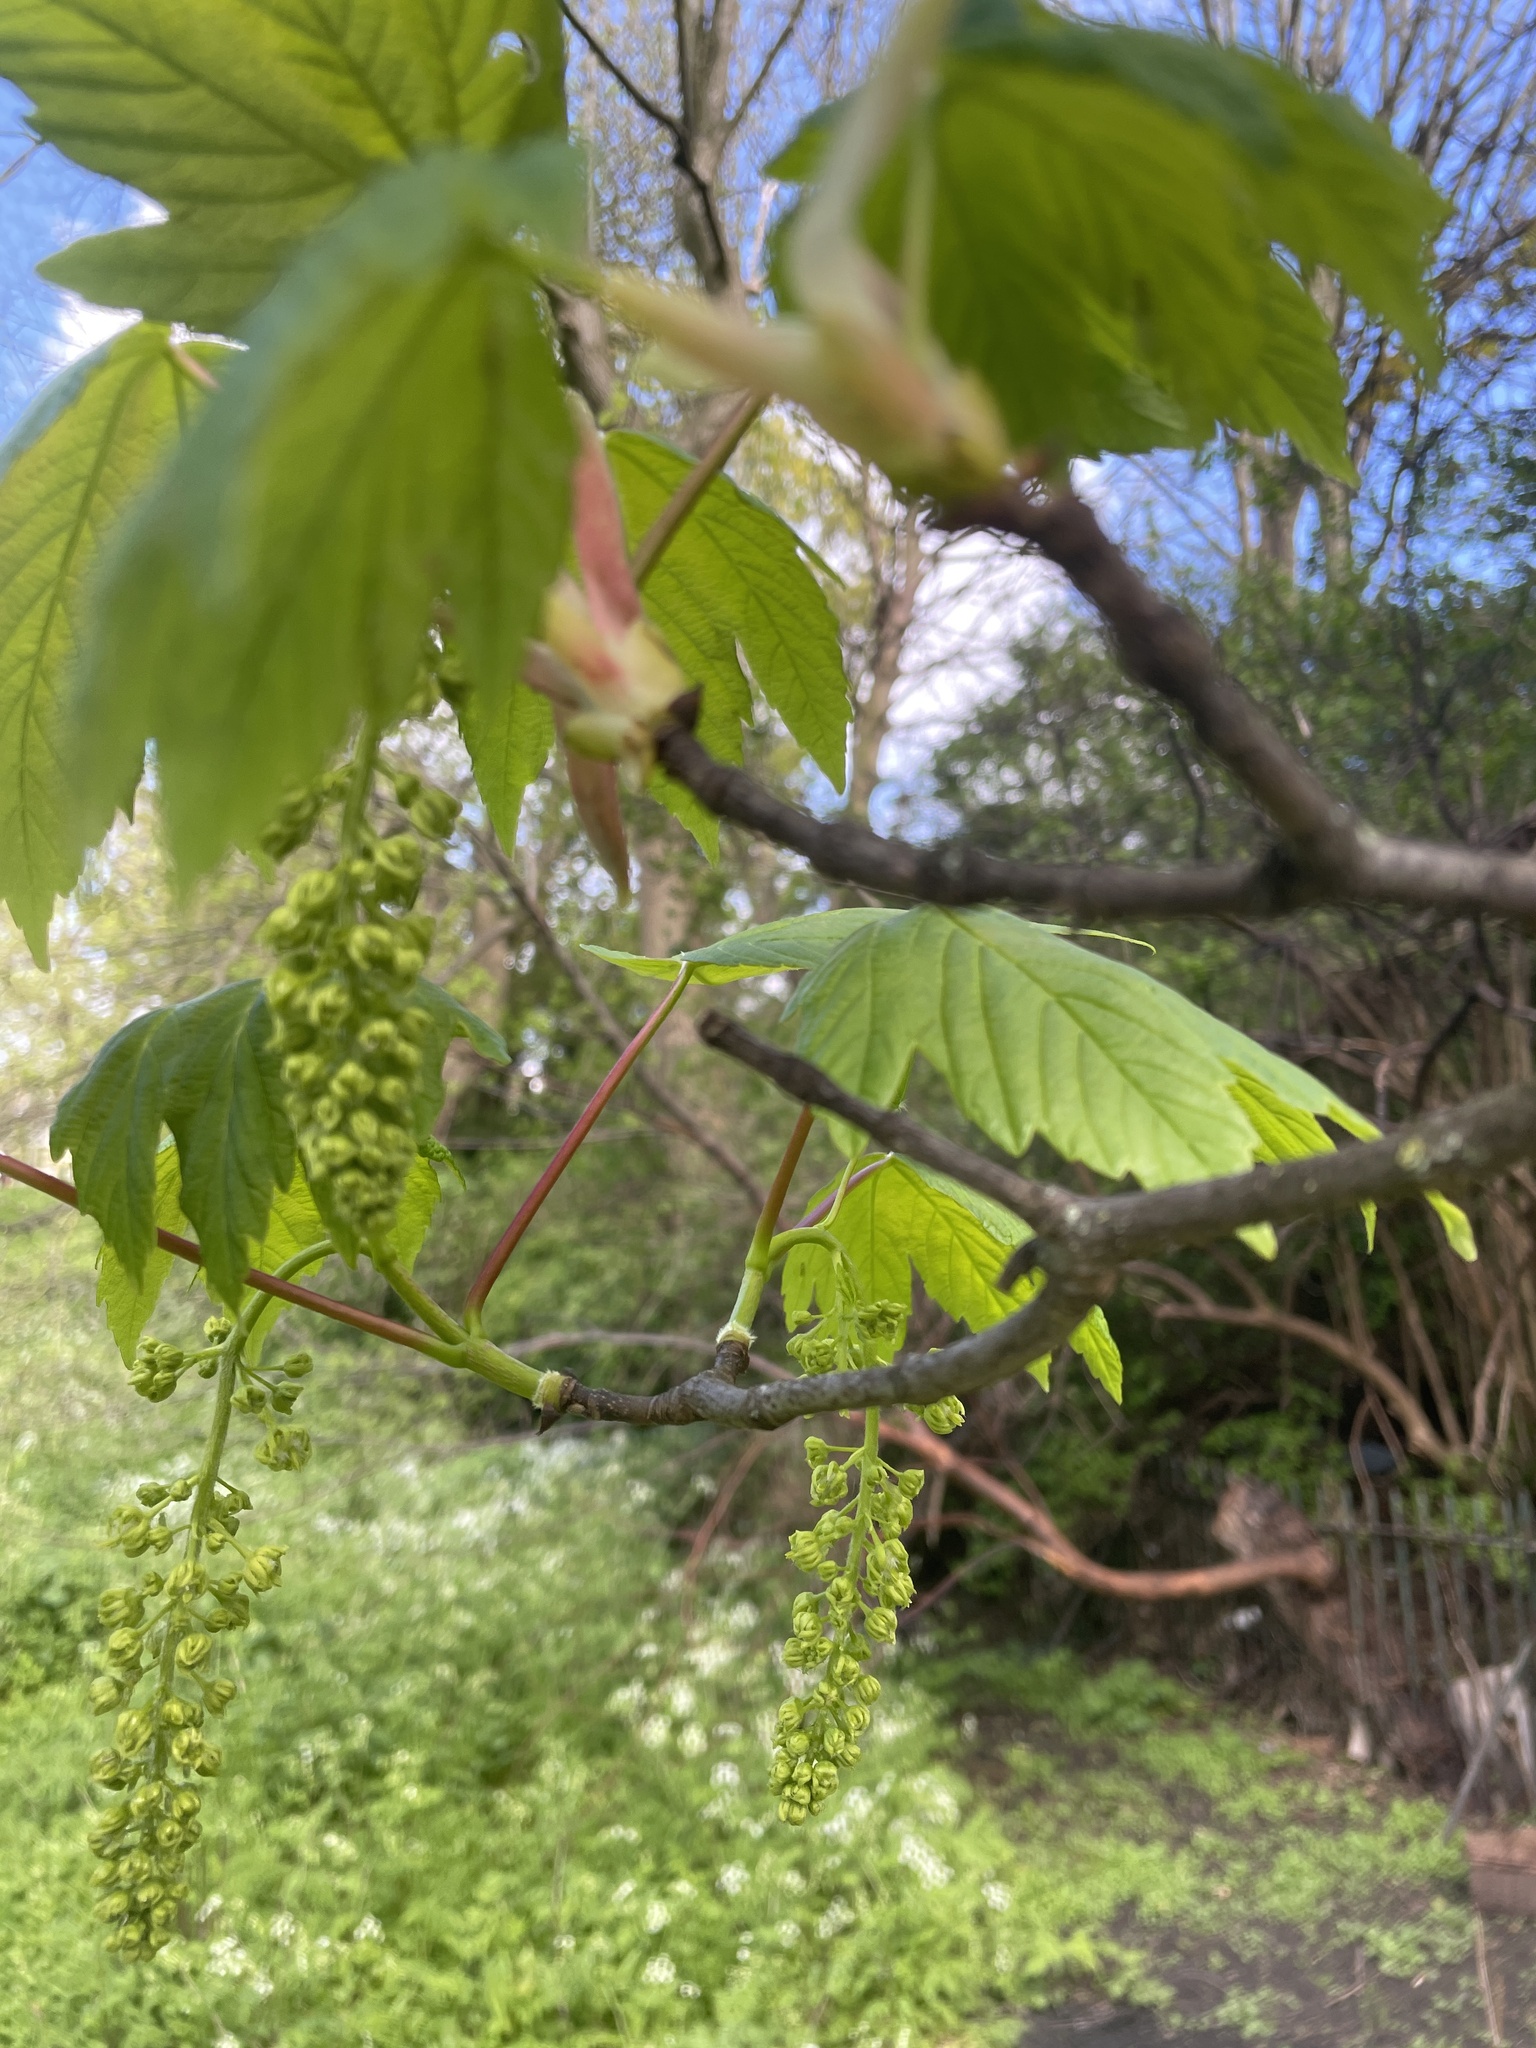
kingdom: Plantae
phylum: Tracheophyta
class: Magnoliopsida
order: Sapindales
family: Sapindaceae
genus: Acer
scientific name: Acer pseudoplatanus
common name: Sycamore
